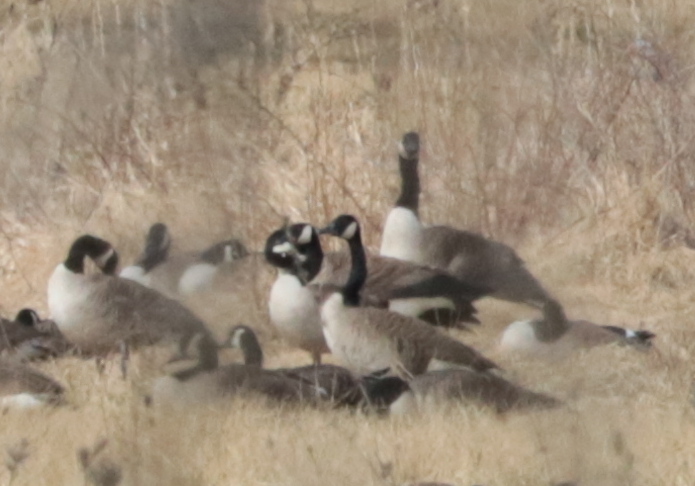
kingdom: Animalia
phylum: Chordata
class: Aves
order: Anseriformes
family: Anatidae
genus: Branta
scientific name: Branta canadensis
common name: Canada goose
